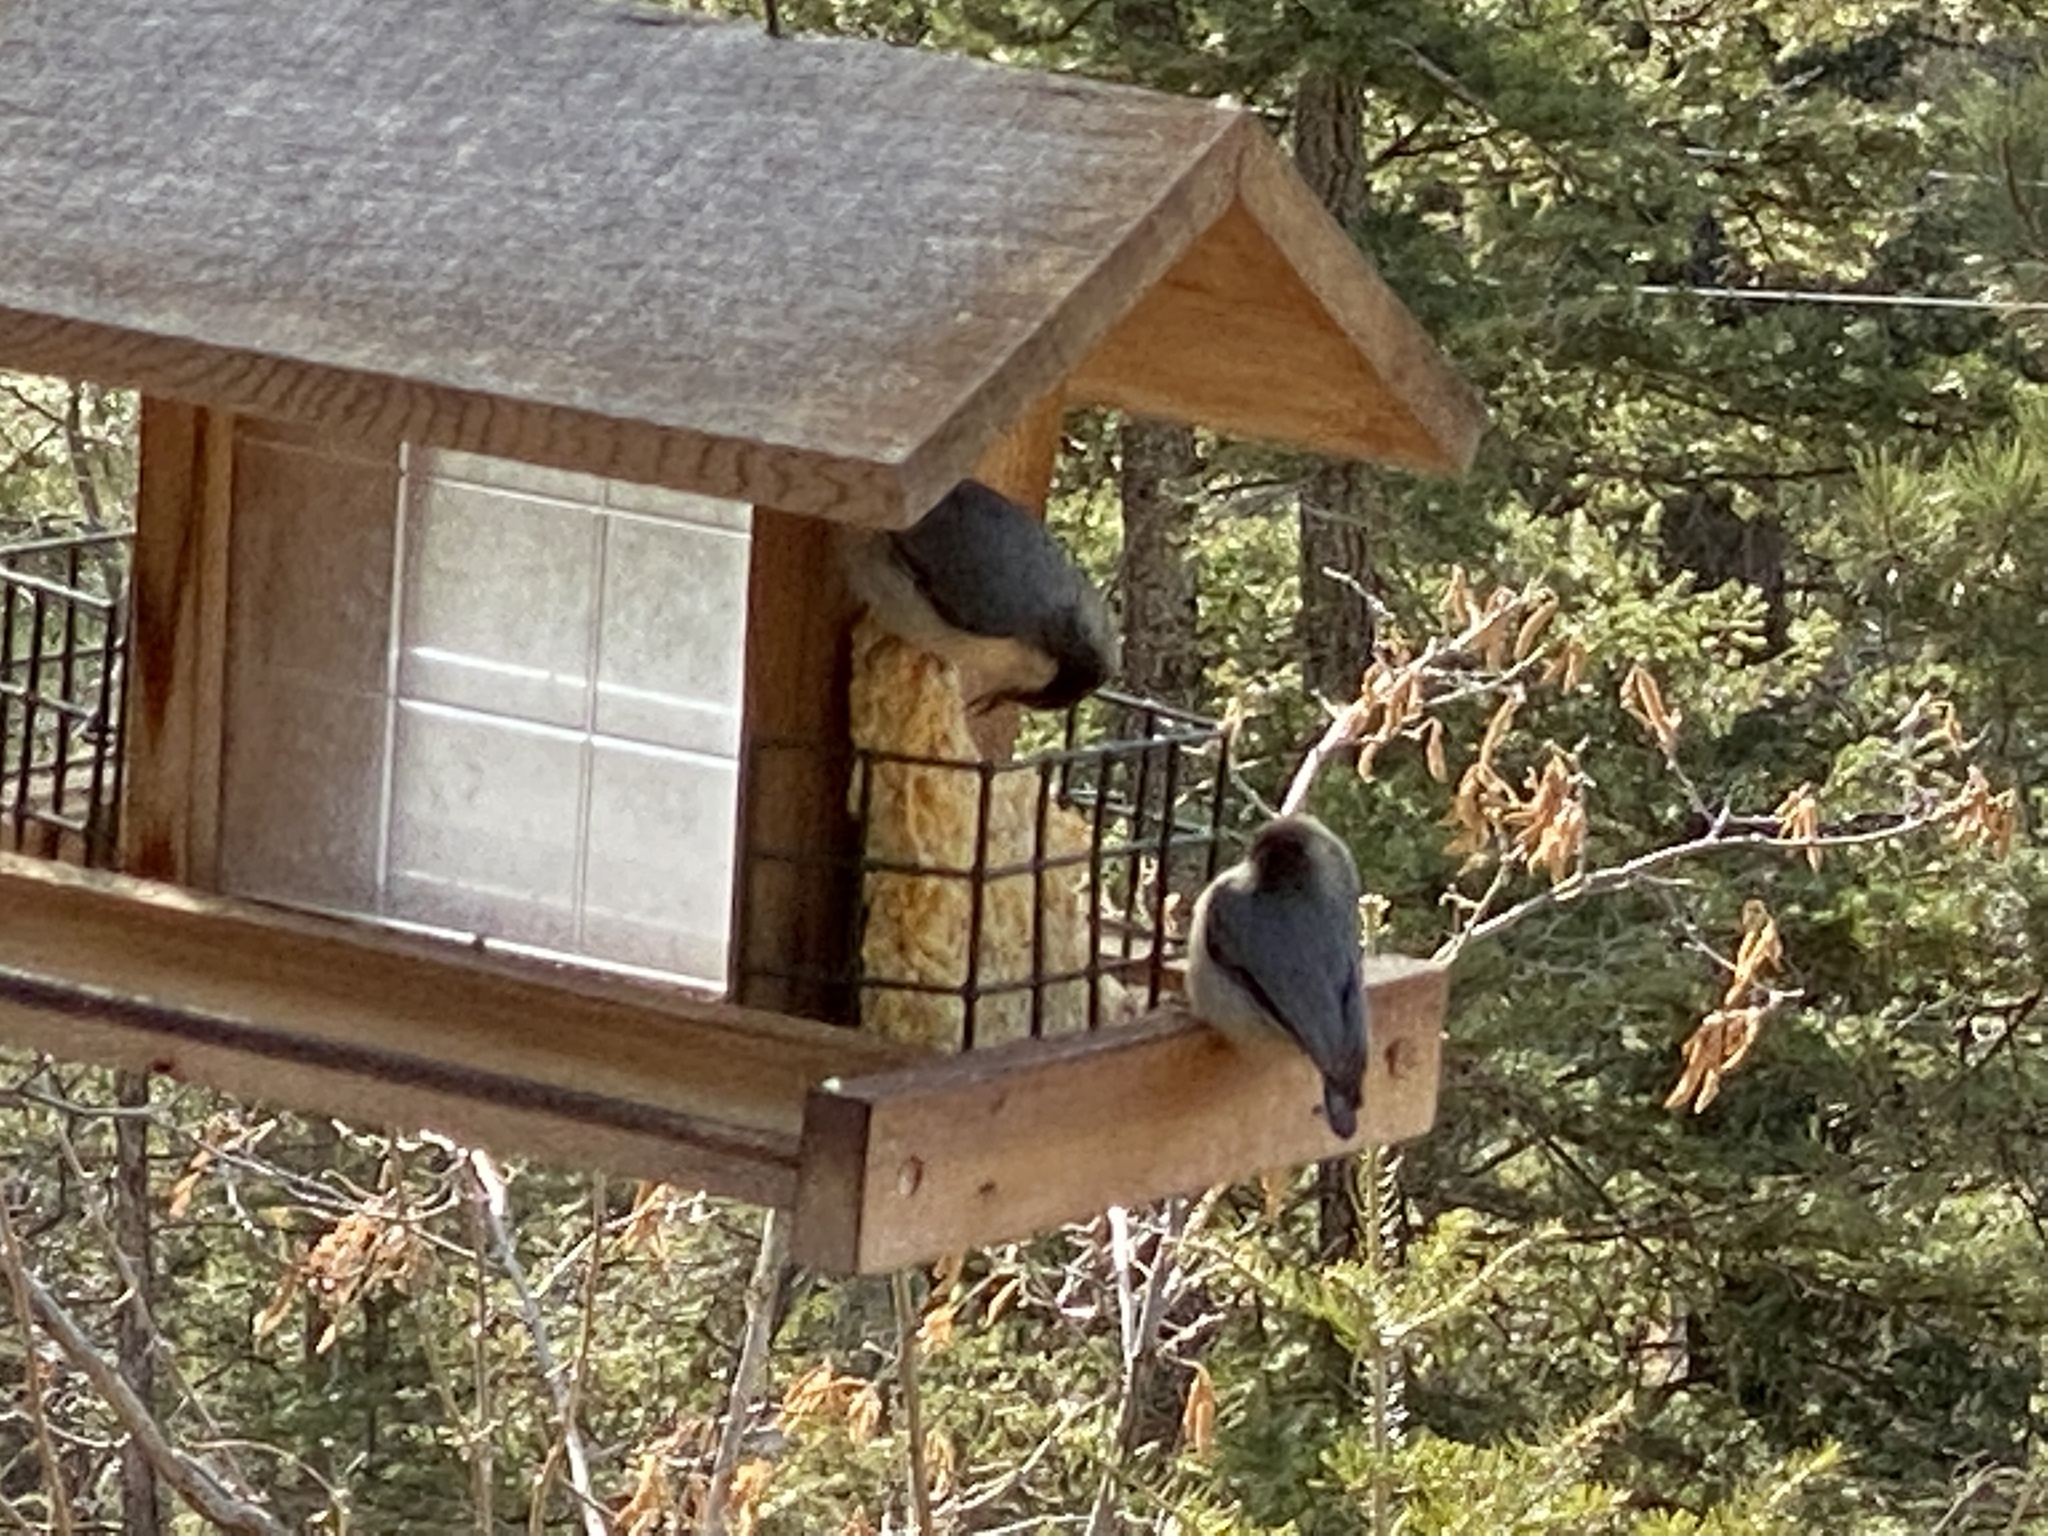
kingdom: Animalia
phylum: Chordata
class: Aves
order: Passeriformes
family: Sittidae
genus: Sitta
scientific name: Sitta pygmaea
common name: Pygmy nuthatch
